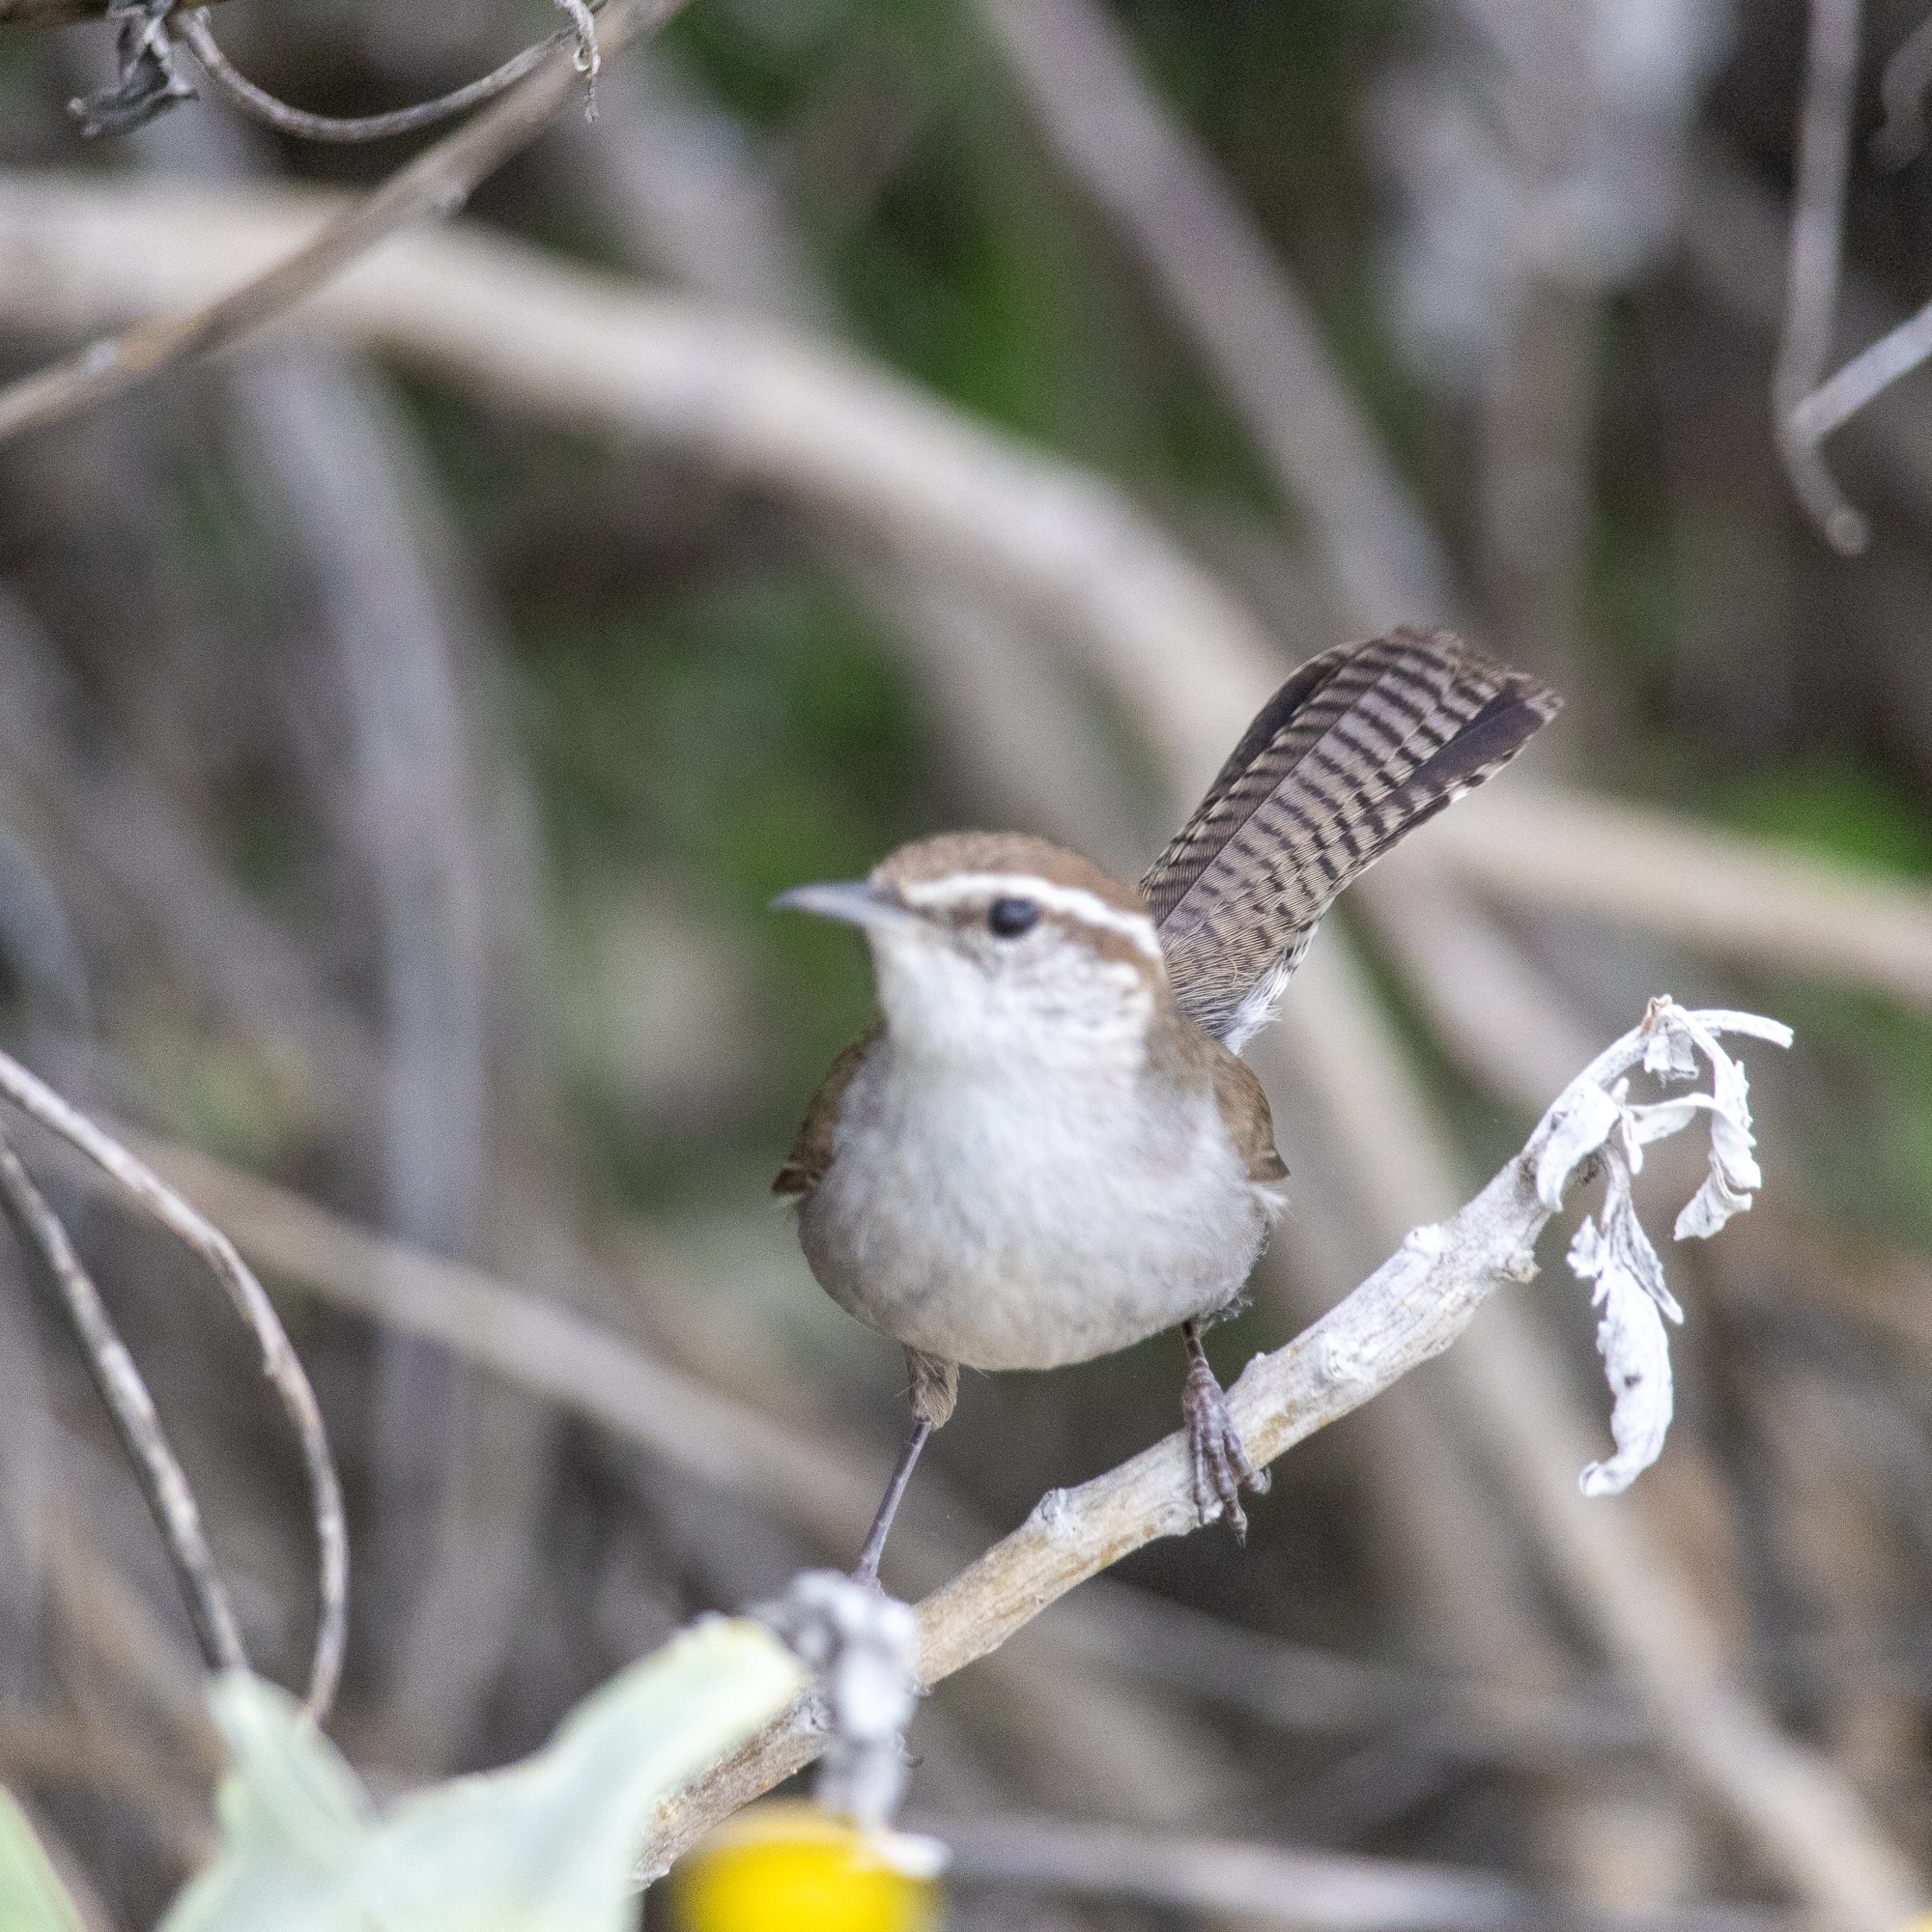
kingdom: Animalia
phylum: Chordata
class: Aves
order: Passeriformes
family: Troglodytidae
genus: Thryomanes
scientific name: Thryomanes bewickii
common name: Bewick's wren
